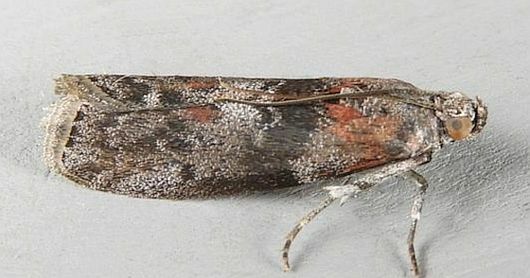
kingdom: Animalia
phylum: Arthropoda
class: Insecta
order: Lepidoptera
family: Pyralidae
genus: Sciota
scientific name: Sciota subcaesiella
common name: Locust leafroller
